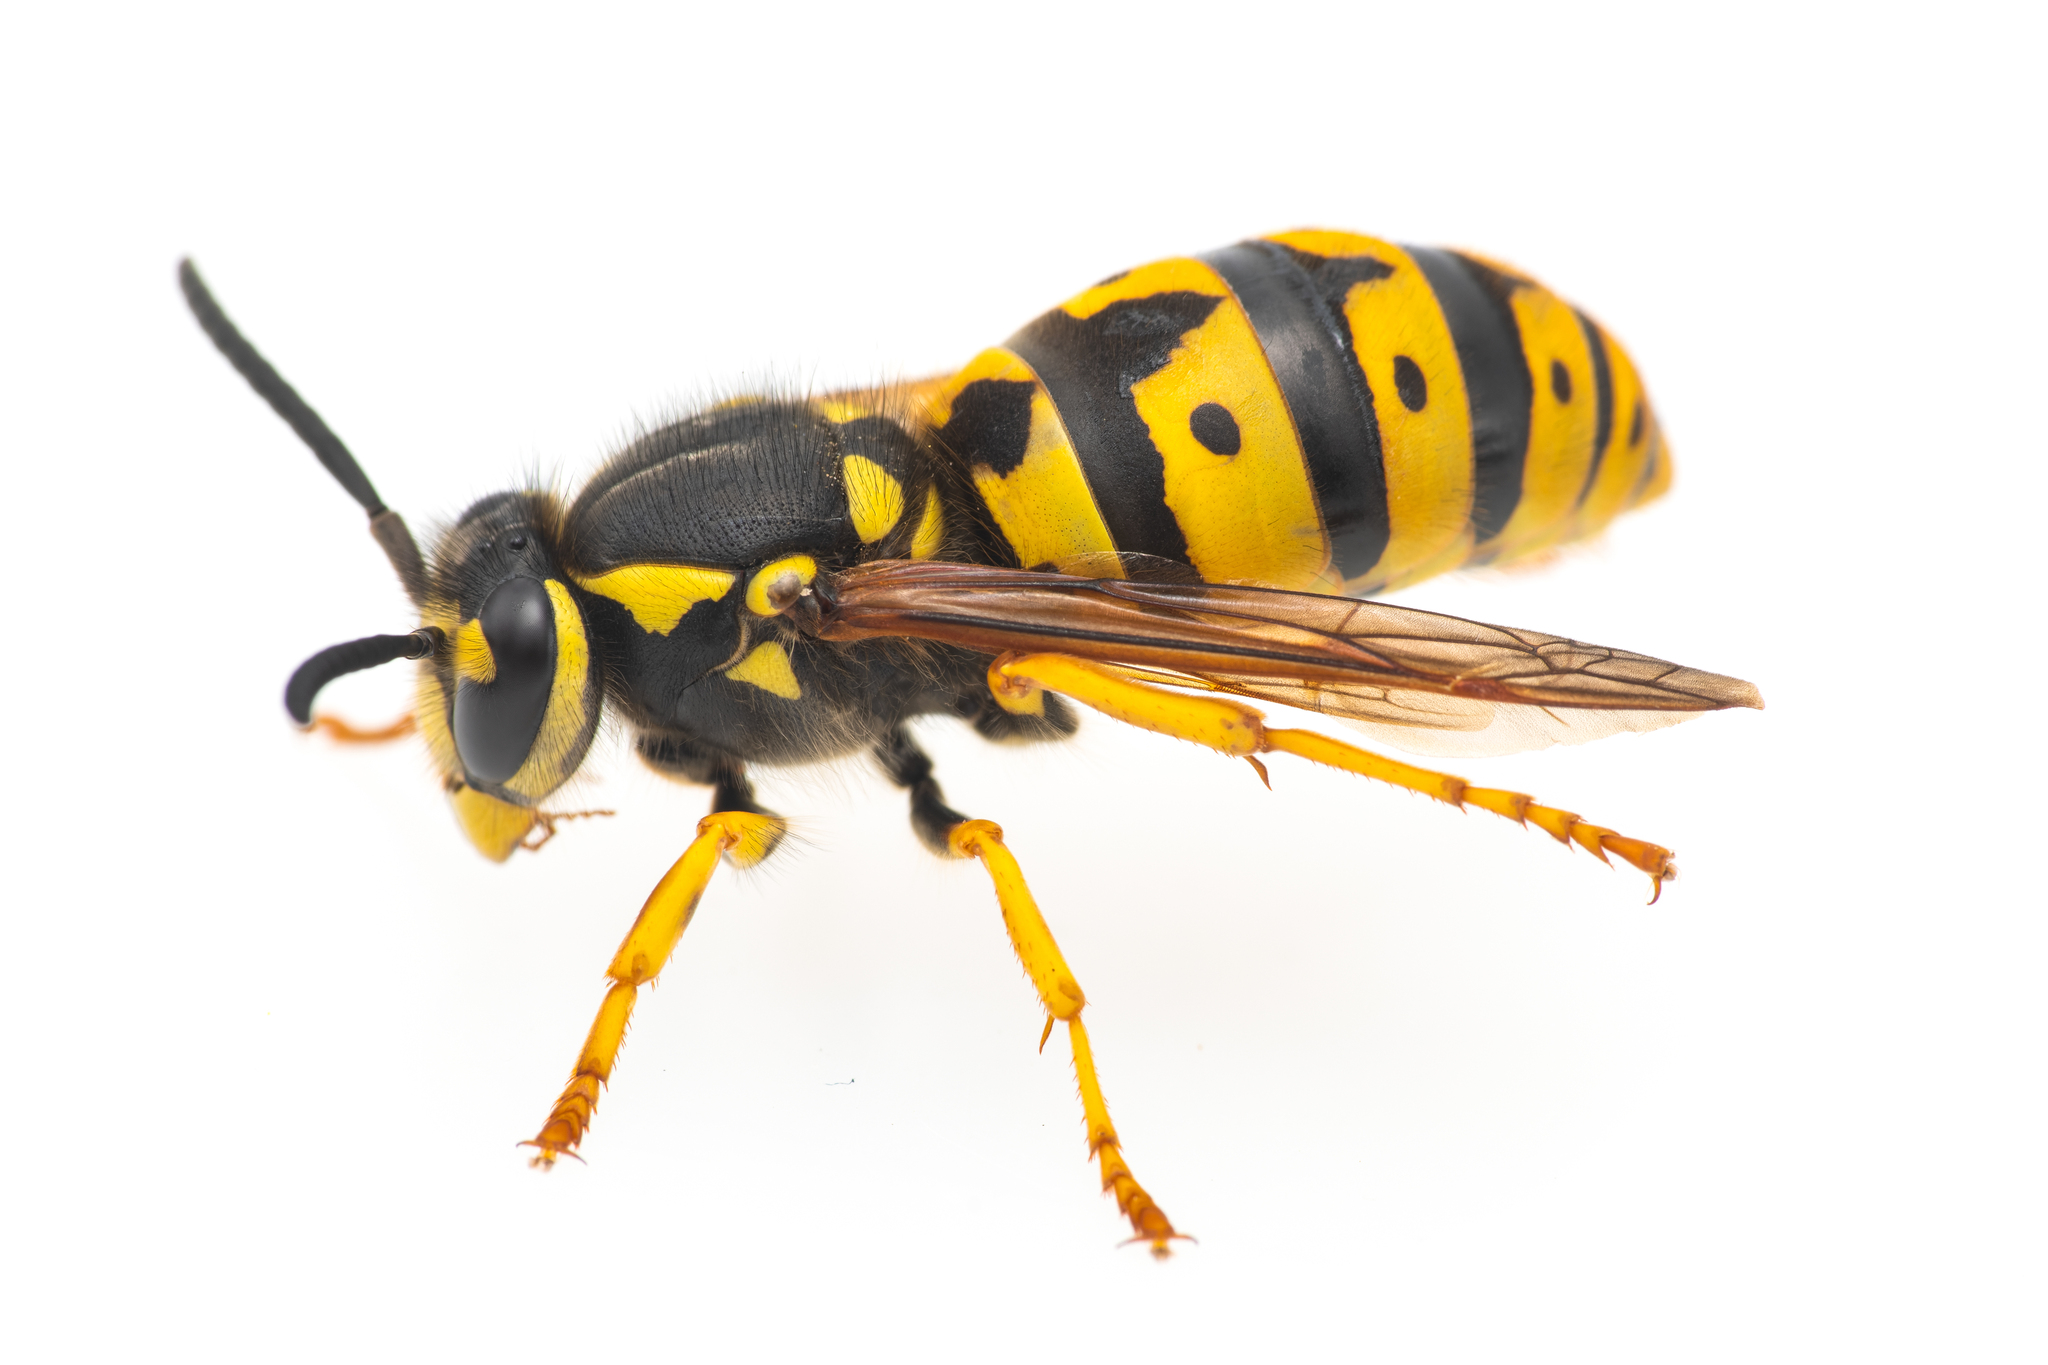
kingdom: Animalia
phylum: Arthropoda
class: Insecta
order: Hymenoptera
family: Vespidae
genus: Vespula
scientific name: Vespula germanica
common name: German wasp
